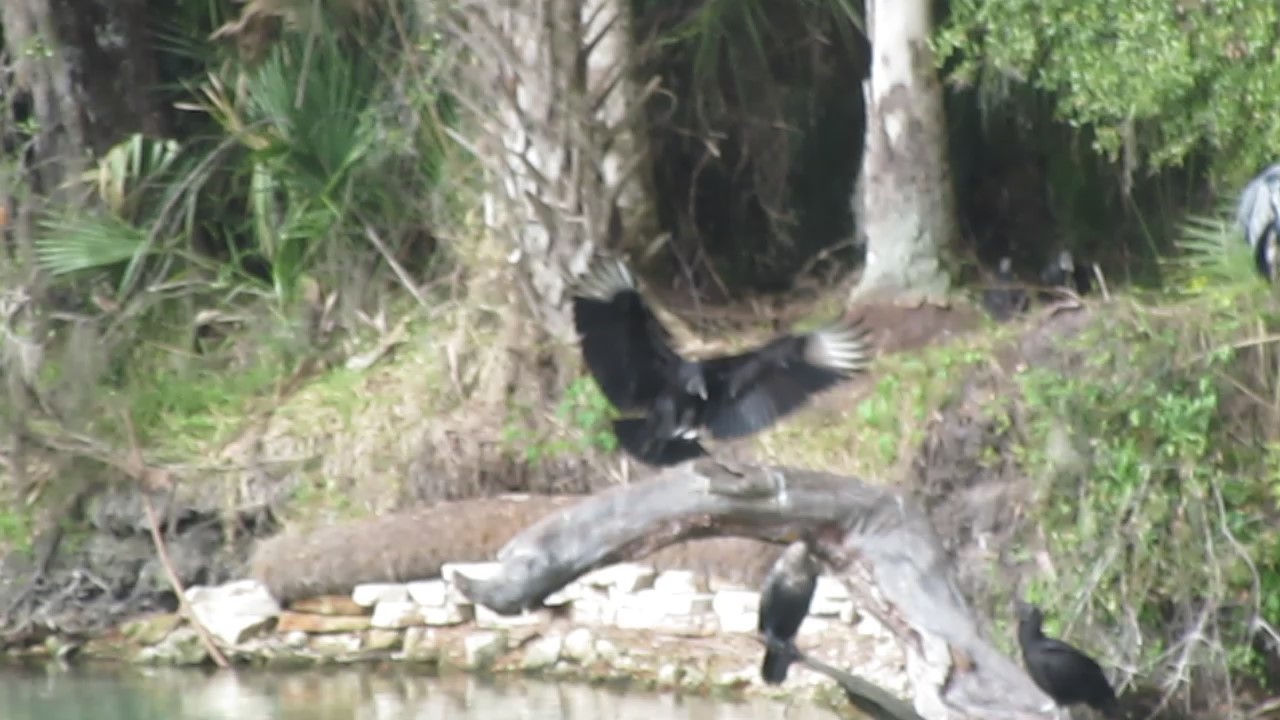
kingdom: Animalia
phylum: Chordata
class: Aves
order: Accipitriformes
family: Cathartidae
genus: Coragyps
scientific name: Coragyps atratus
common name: Black vulture
